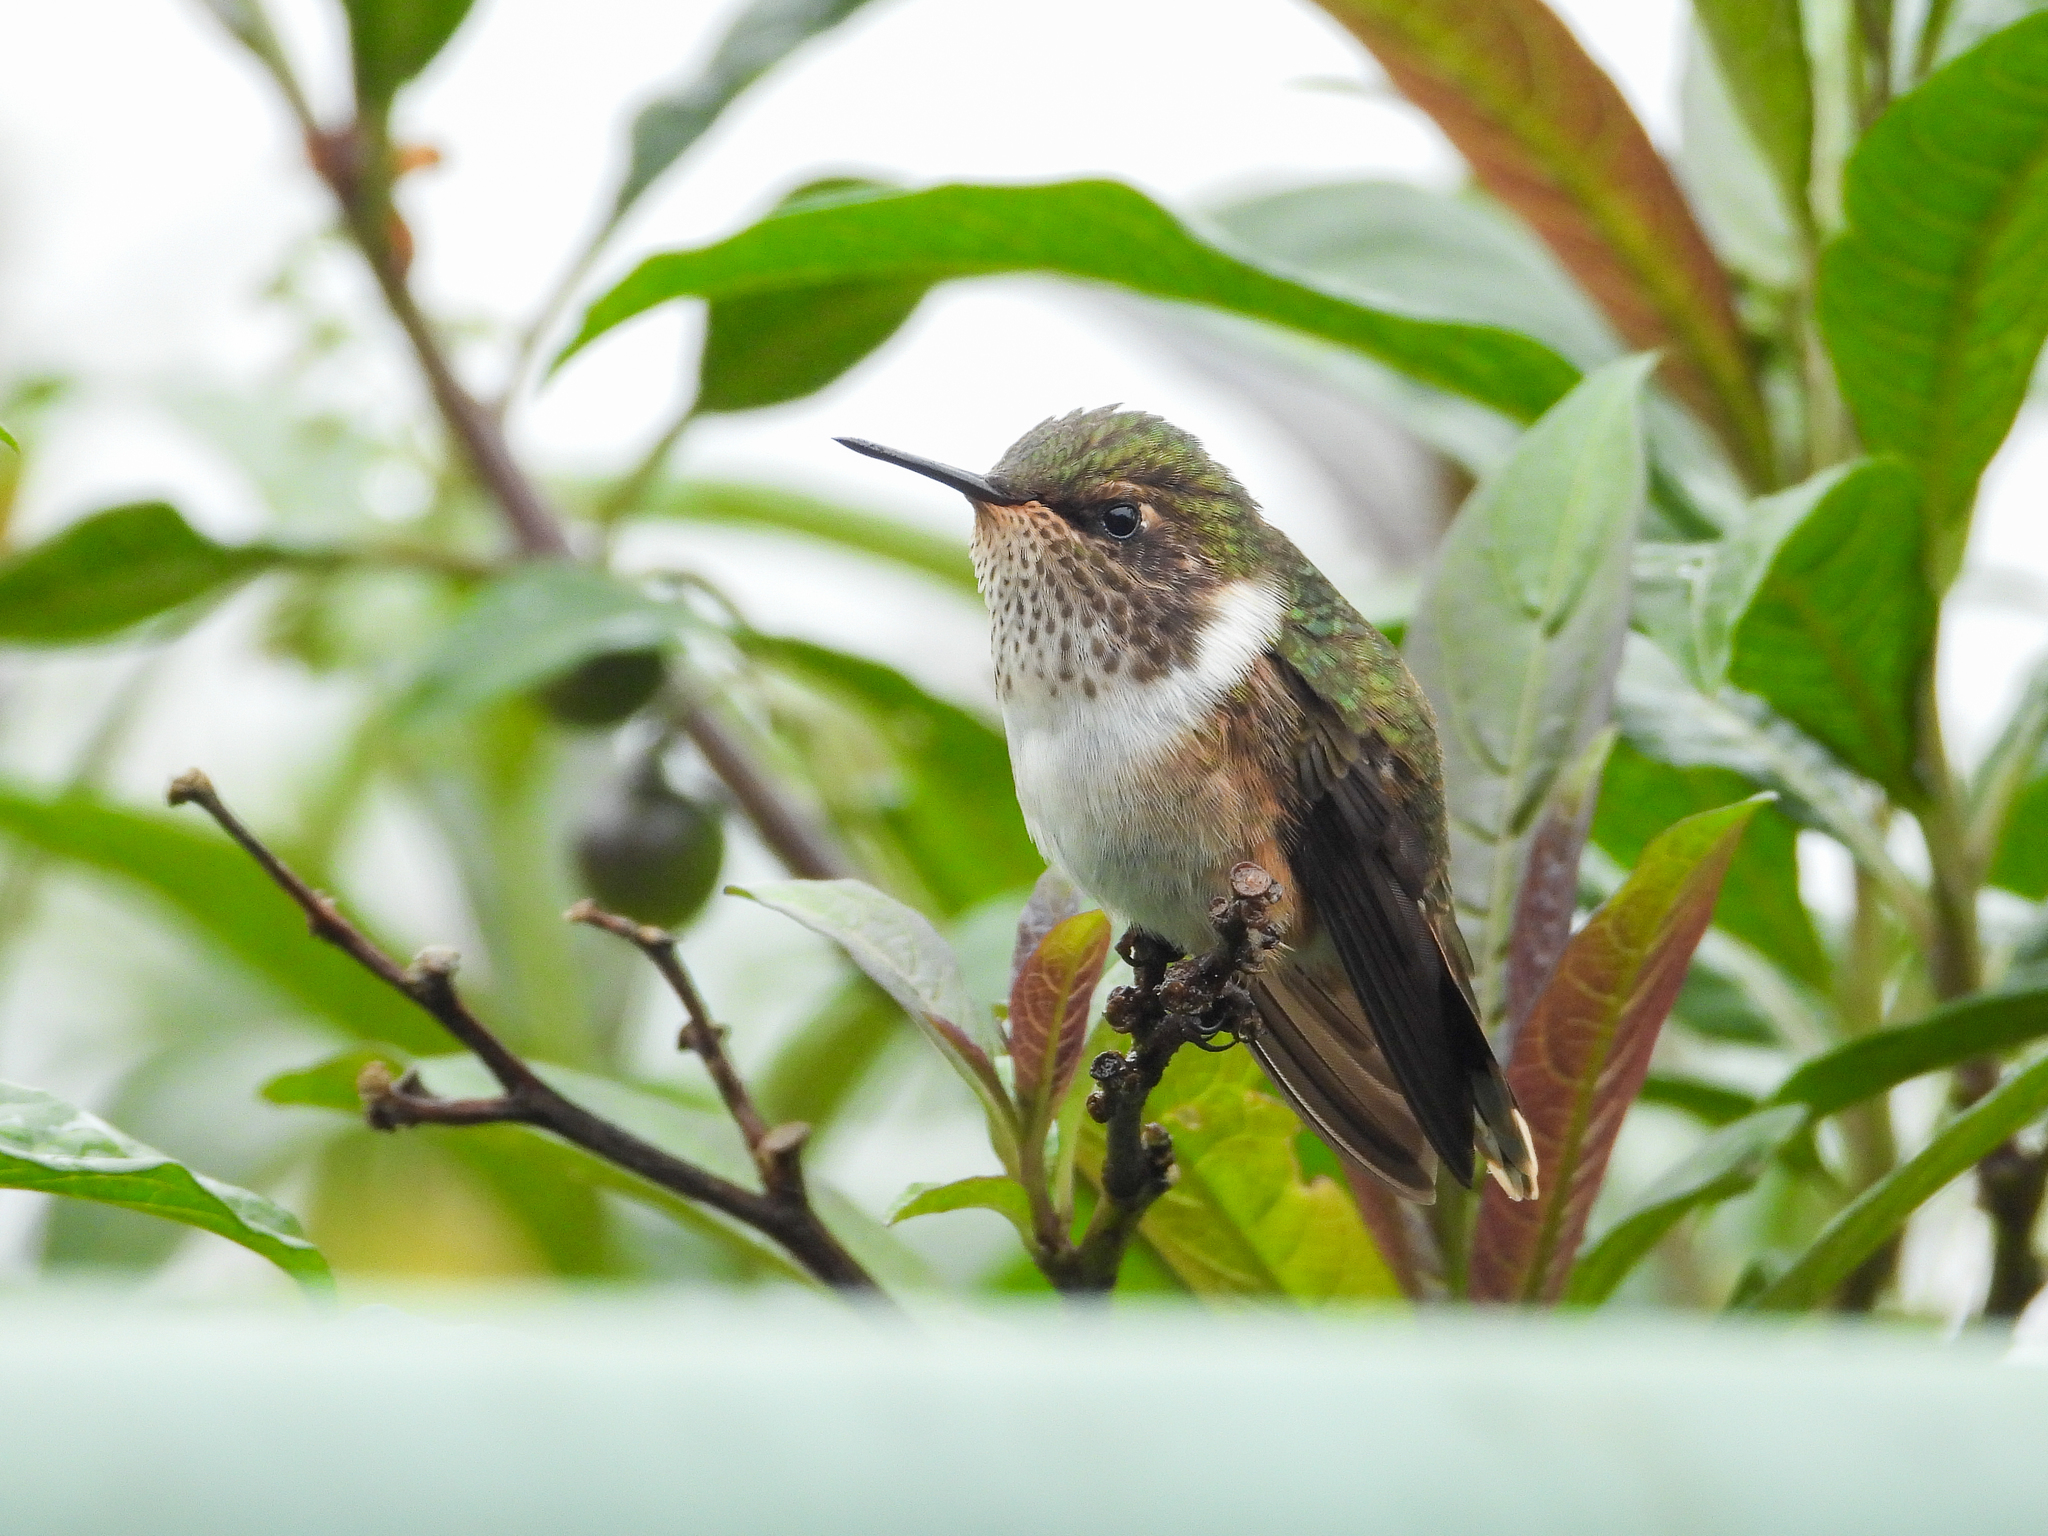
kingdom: Animalia
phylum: Chordata
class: Aves
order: Apodiformes
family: Trochilidae
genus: Selasphorus
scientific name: Selasphorus flammula
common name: Volcano hummingbird
